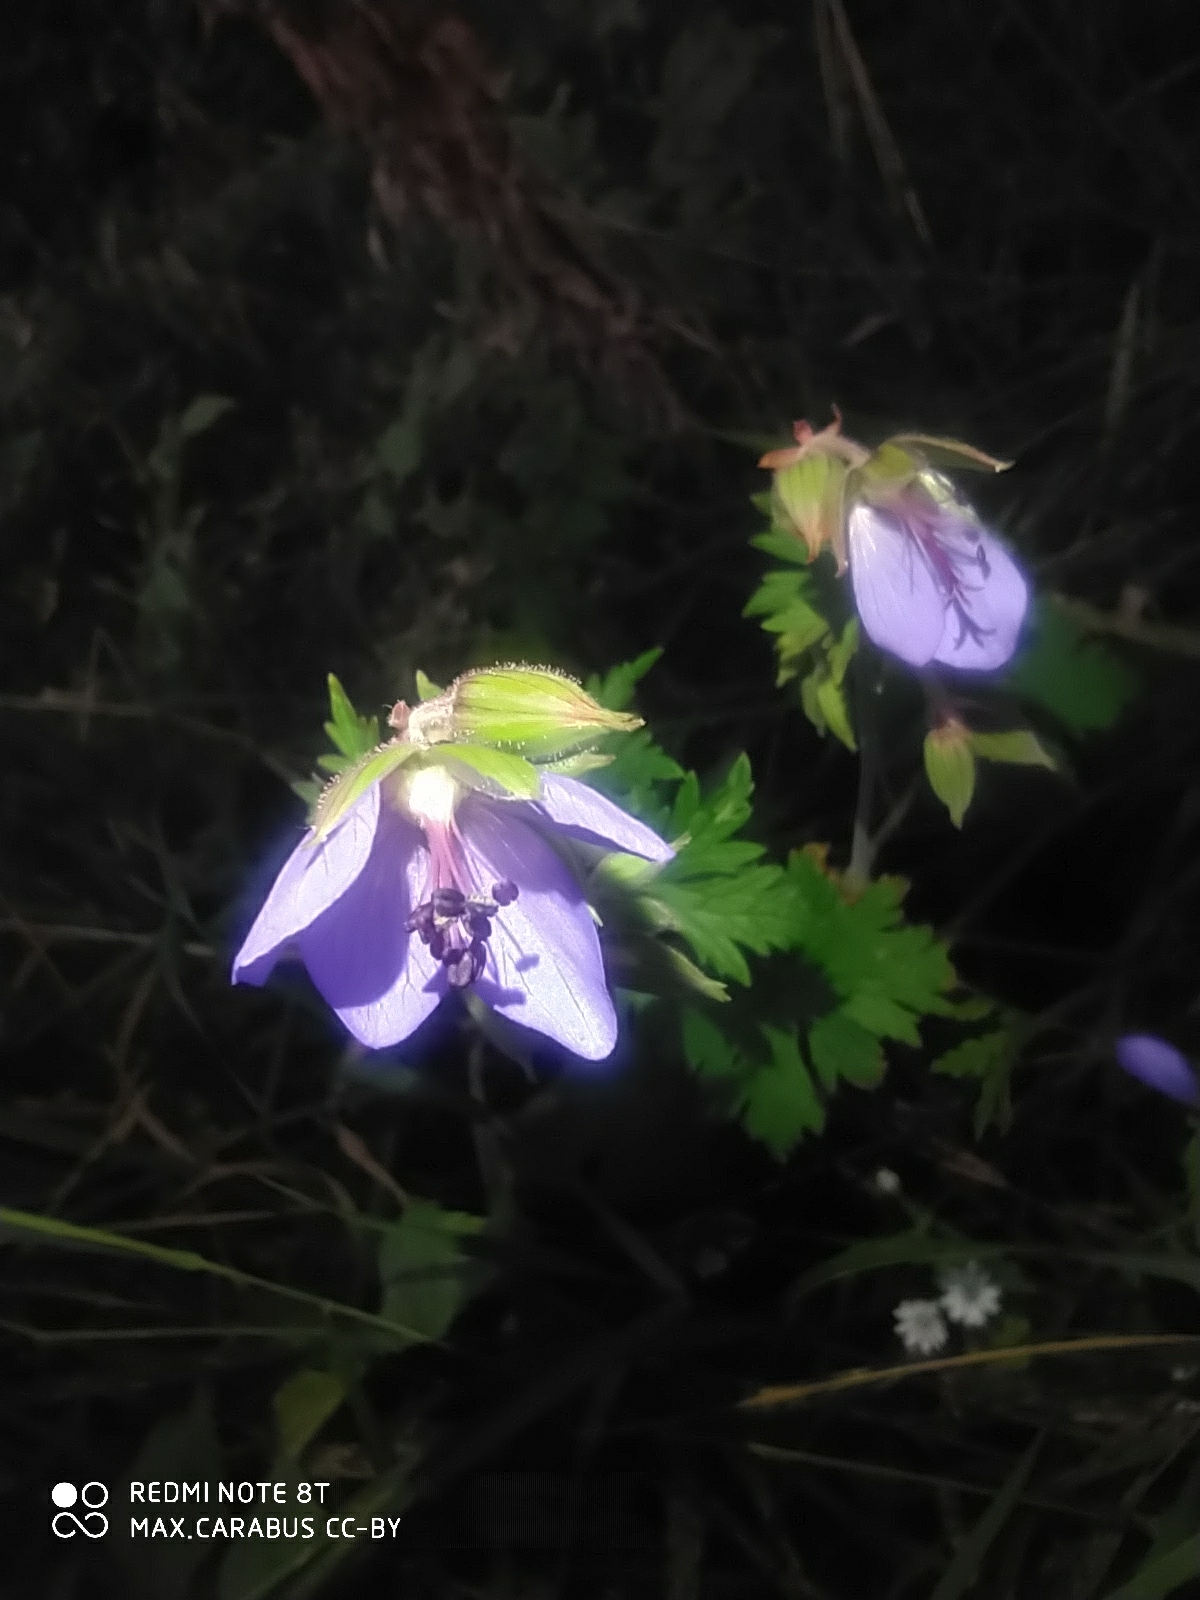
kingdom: Plantae
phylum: Tracheophyta
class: Magnoliopsida
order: Geraniales
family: Geraniaceae
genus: Geranium
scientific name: Geranium pratense
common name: Meadow crane's-bill
